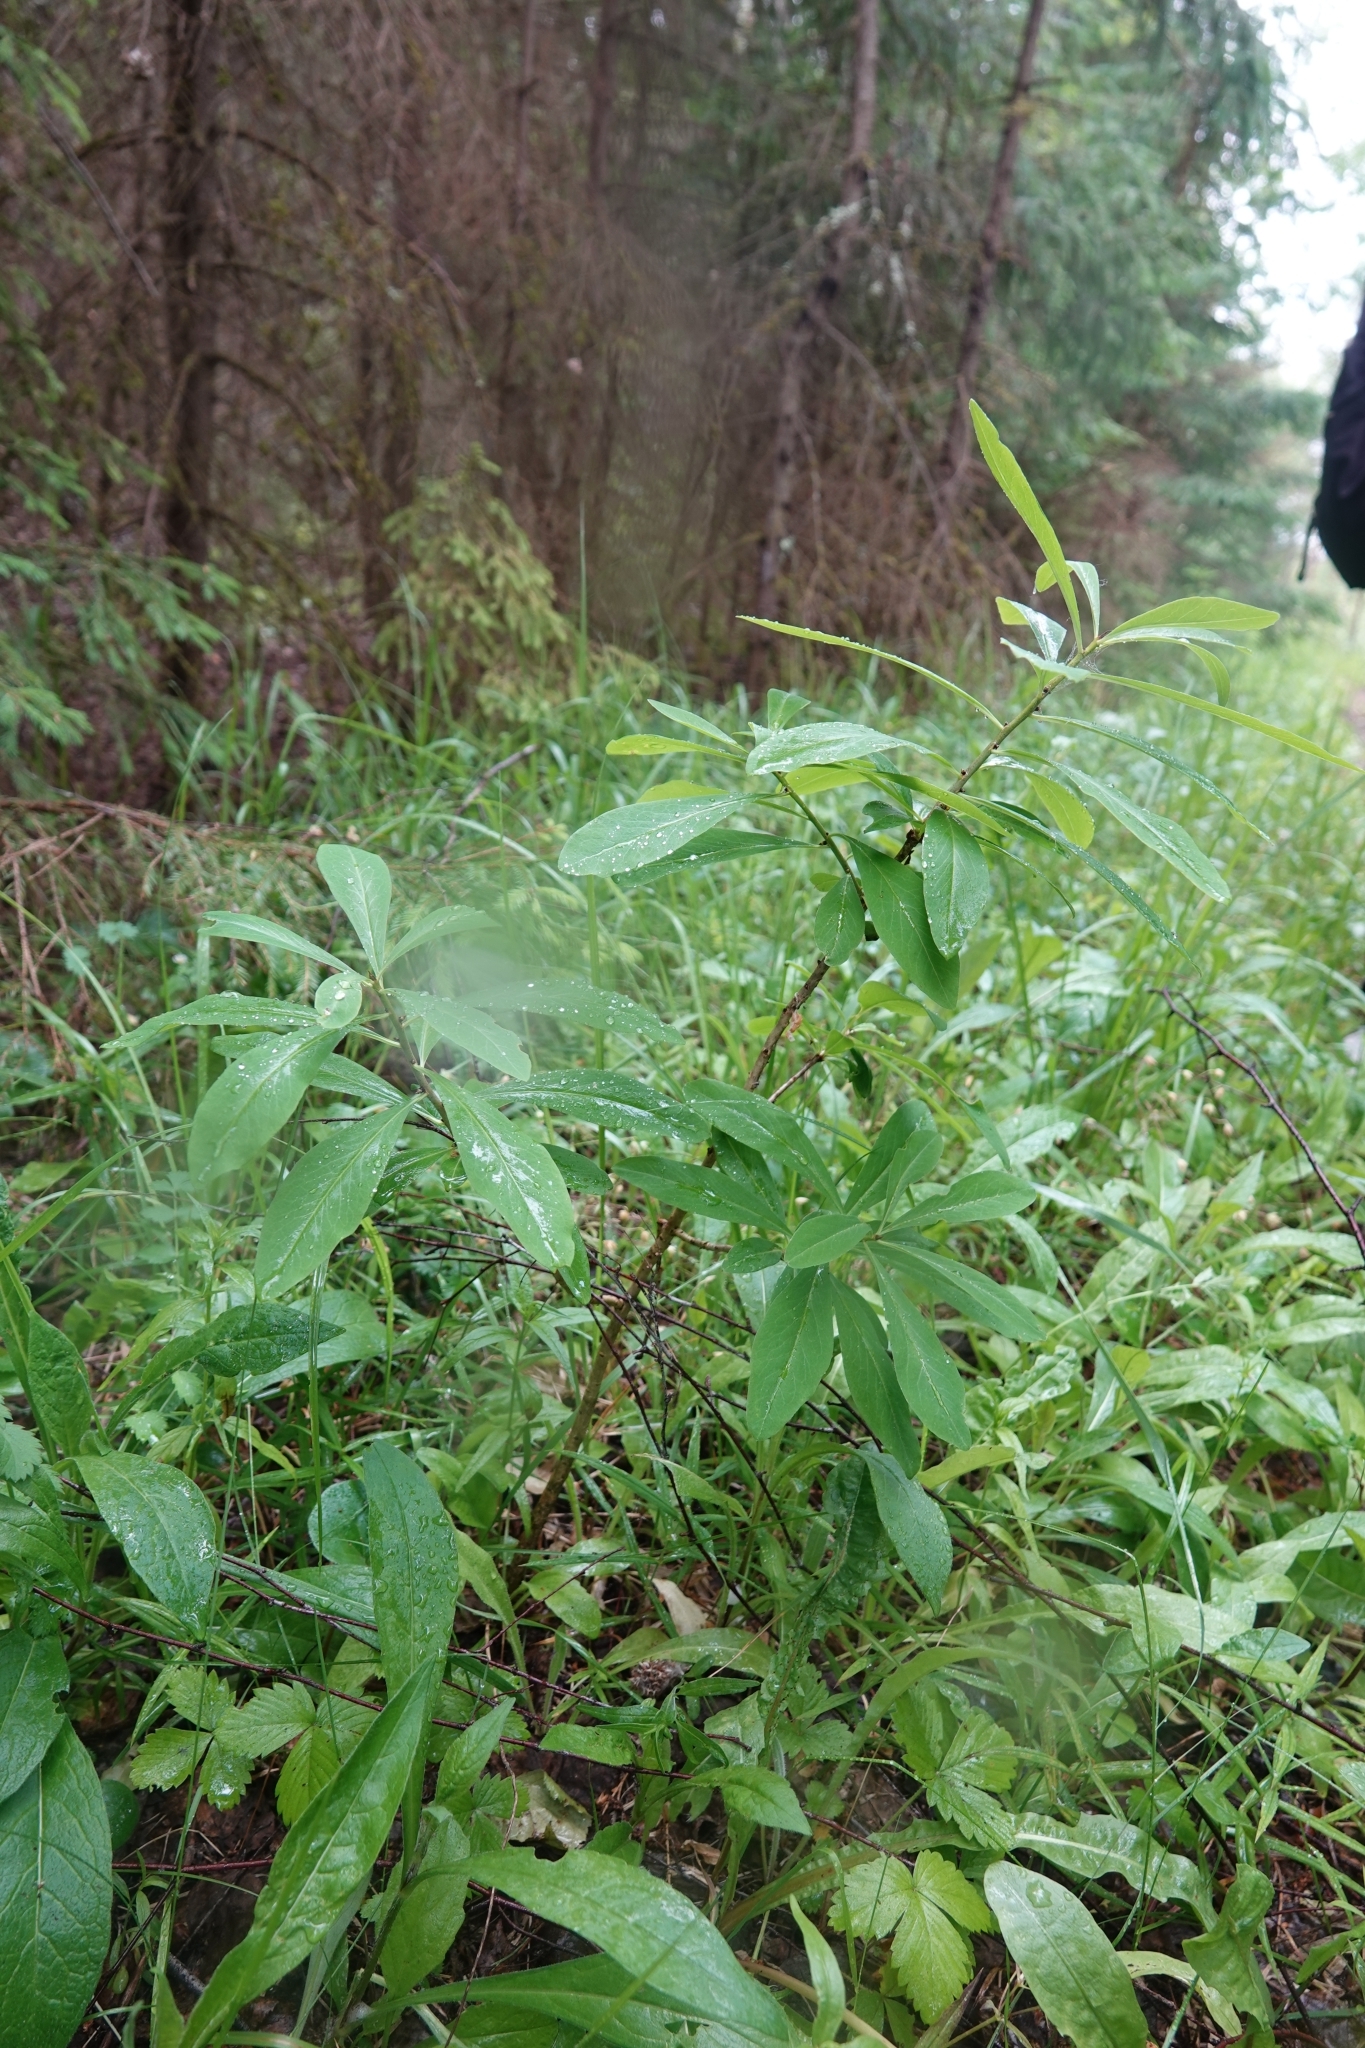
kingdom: Plantae
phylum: Tracheophyta
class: Magnoliopsida
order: Malvales
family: Thymelaeaceae
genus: Daphne
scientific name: Daphne mezereum
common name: Mezereon
